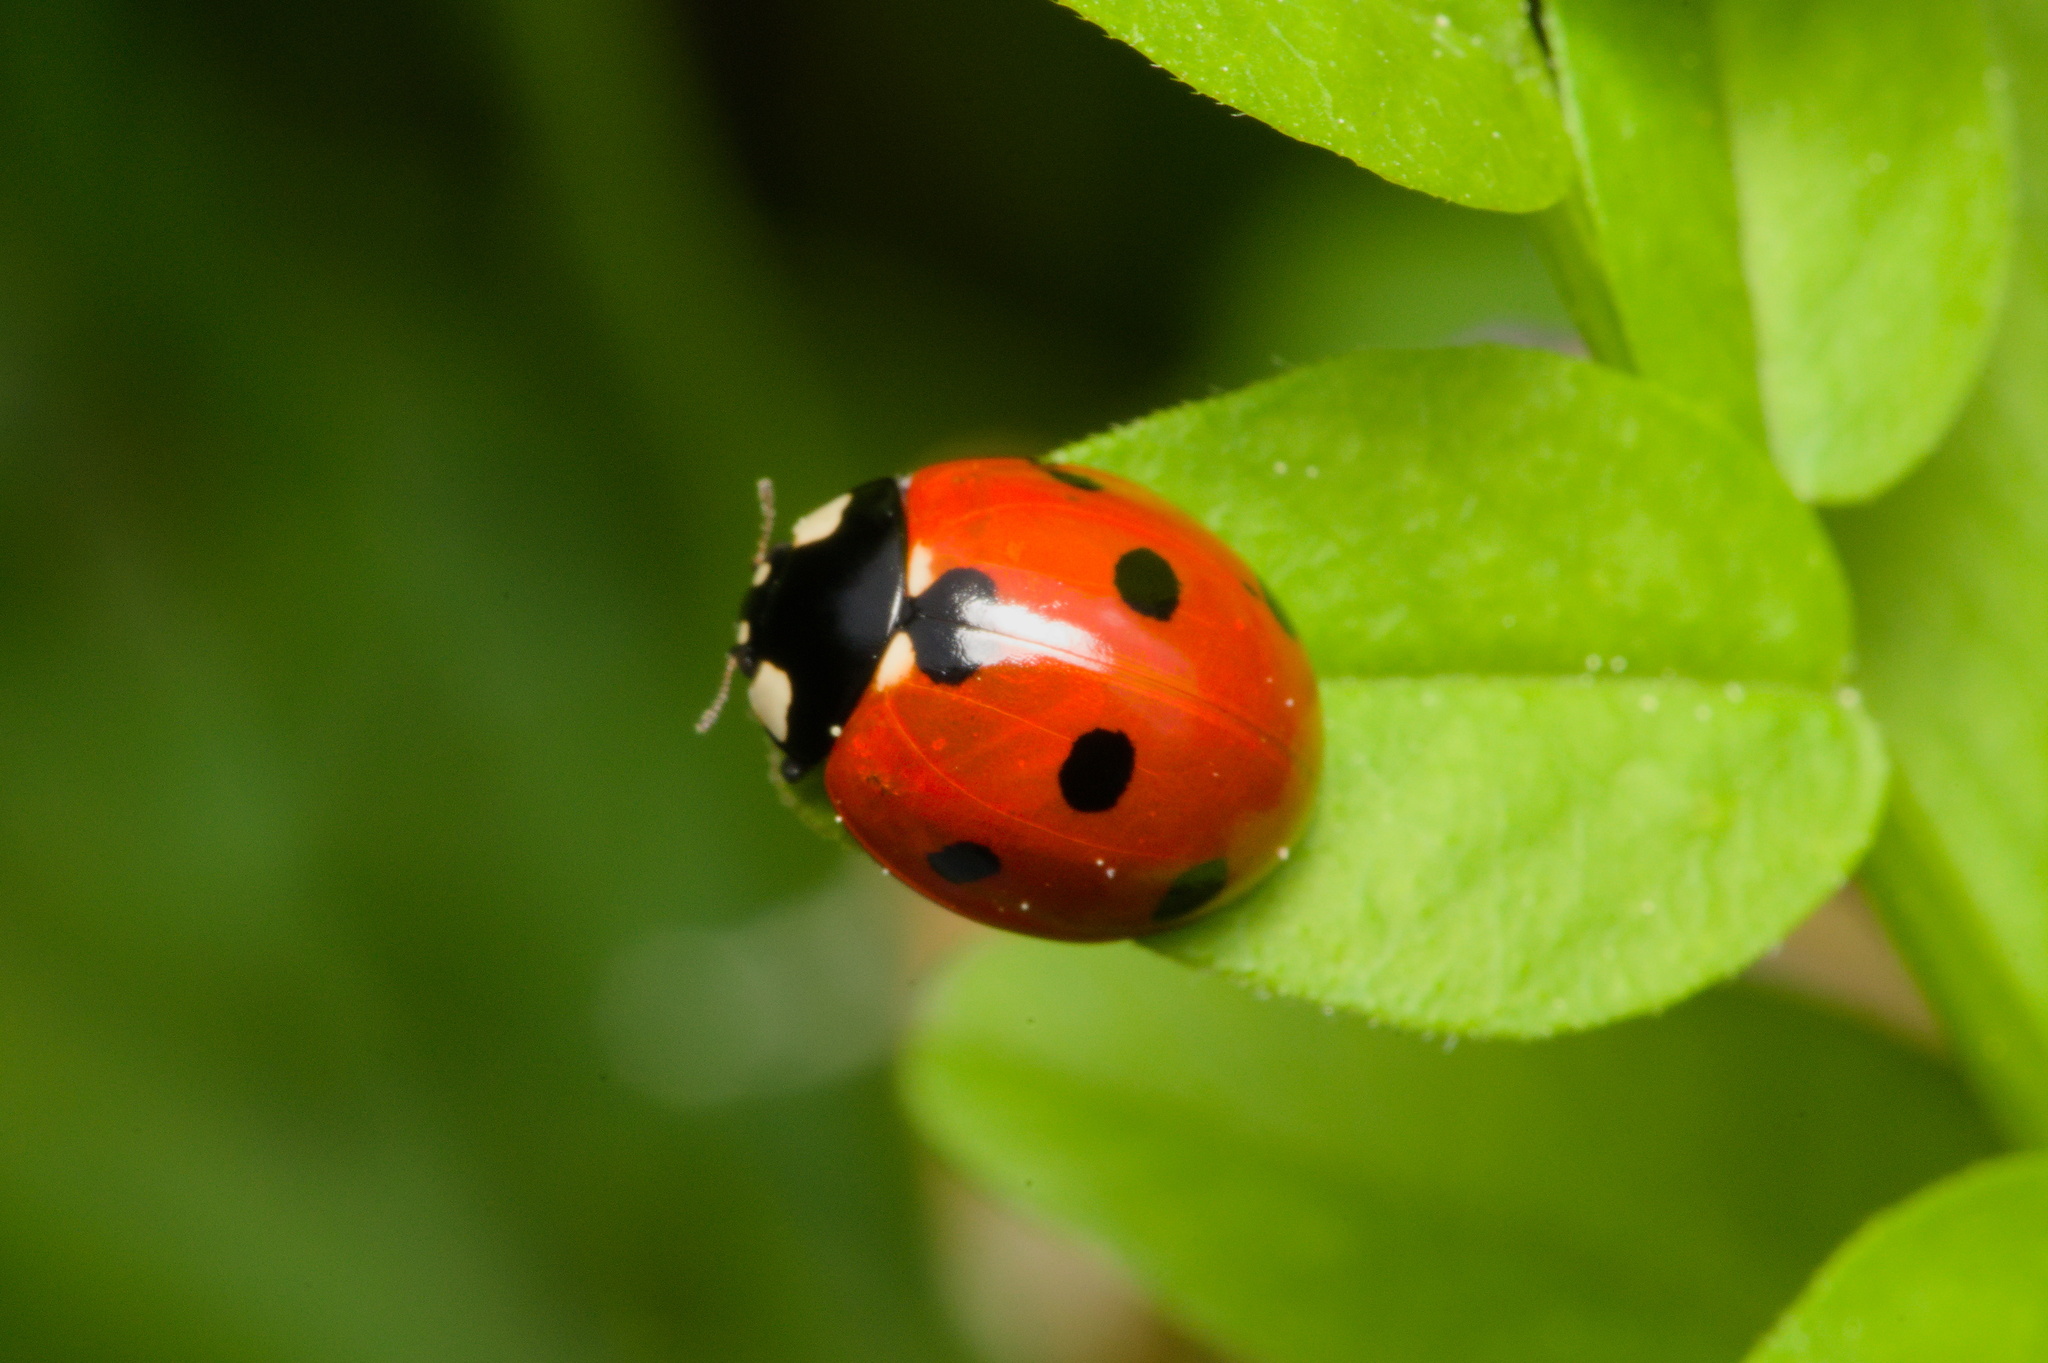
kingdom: Animalia
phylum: Arthropoda
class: Insecta
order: Coleoptera
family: Coccinellidae
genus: Coccinella
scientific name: Coccinella septempunctata
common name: Sevenspotted lady beetle
